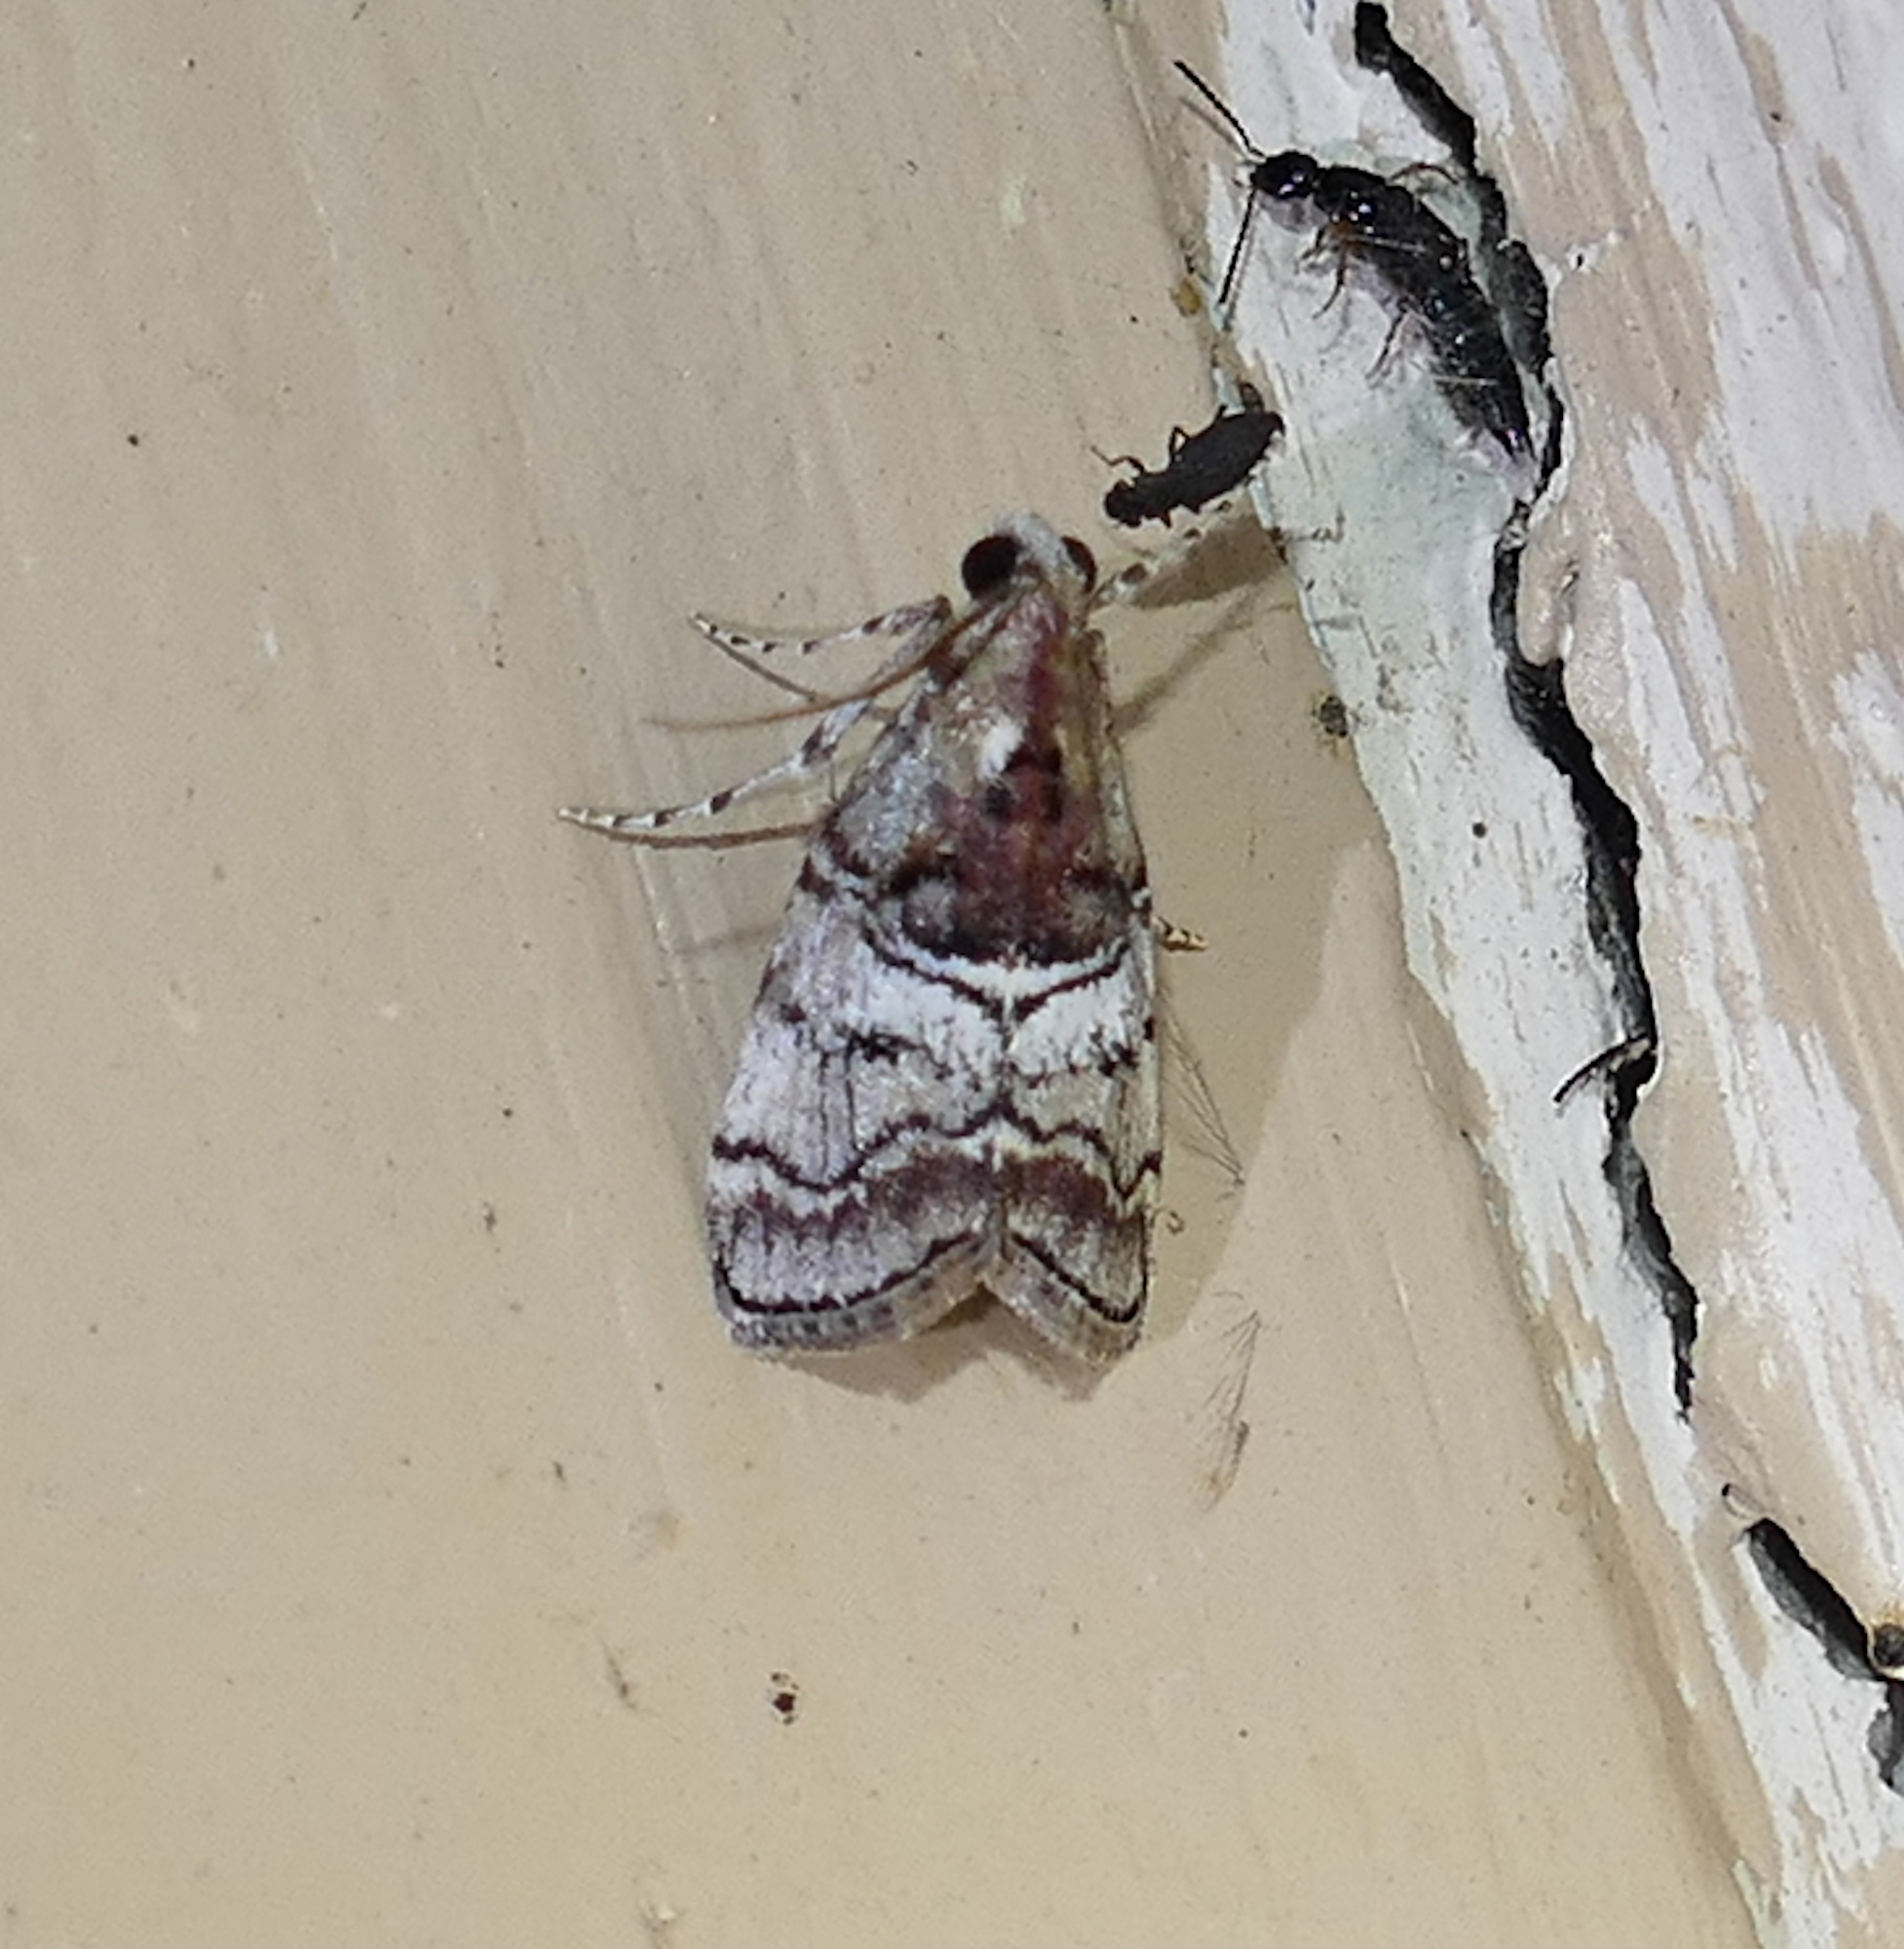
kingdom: Animalia
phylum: Arthropoda
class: Insecta
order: Lepidoptera
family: Pyralidae
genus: Pococera
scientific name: Pococera maritimalis
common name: Gray-banded pococera moth
